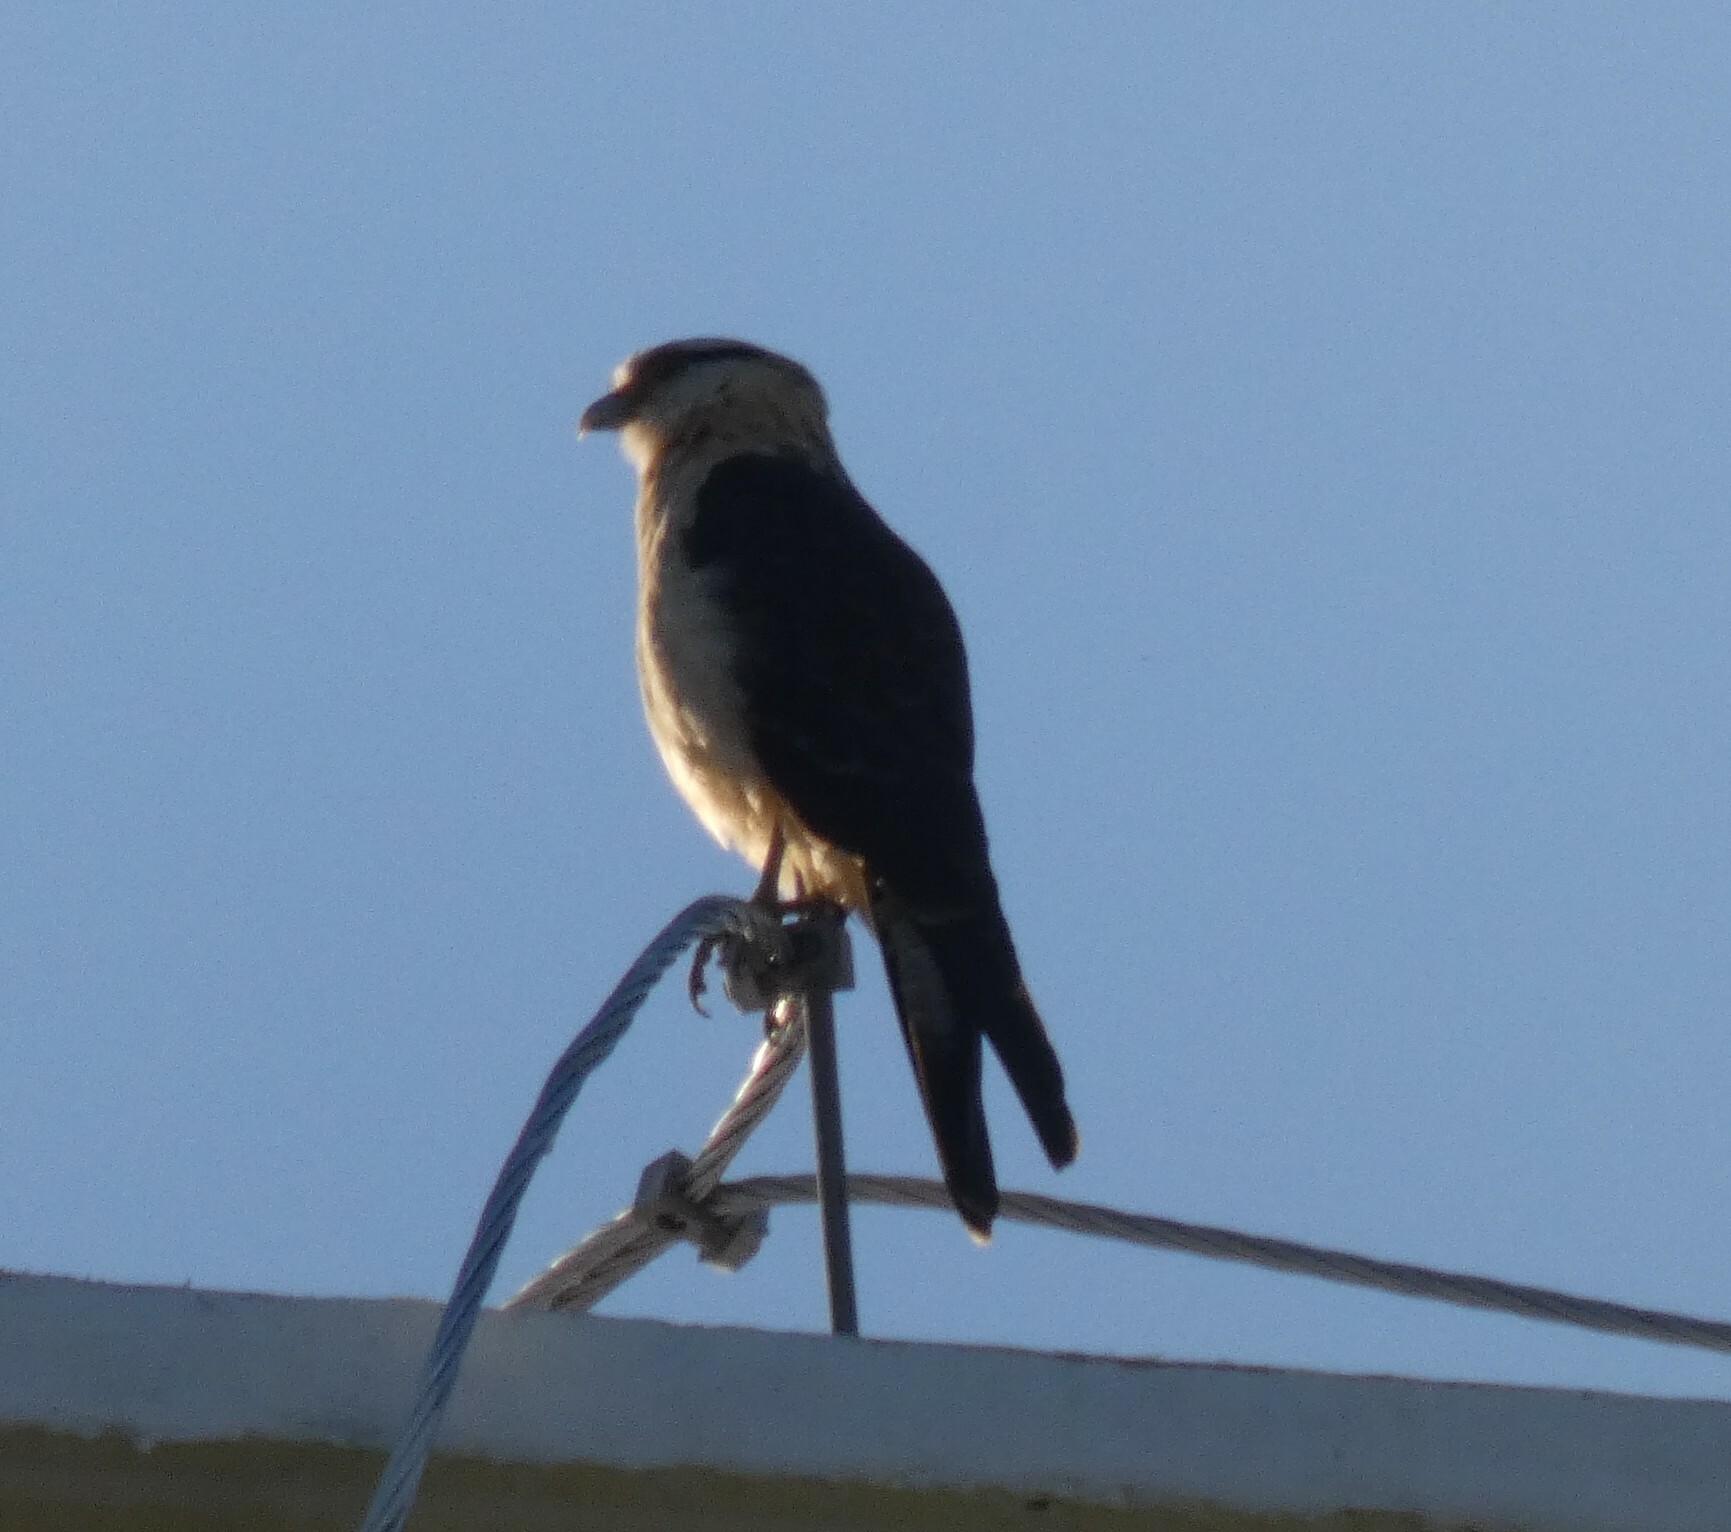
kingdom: Animalia
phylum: Chordata
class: Aves
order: Falconiformes
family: Falconidae
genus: Daptrius
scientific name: Daptrius
